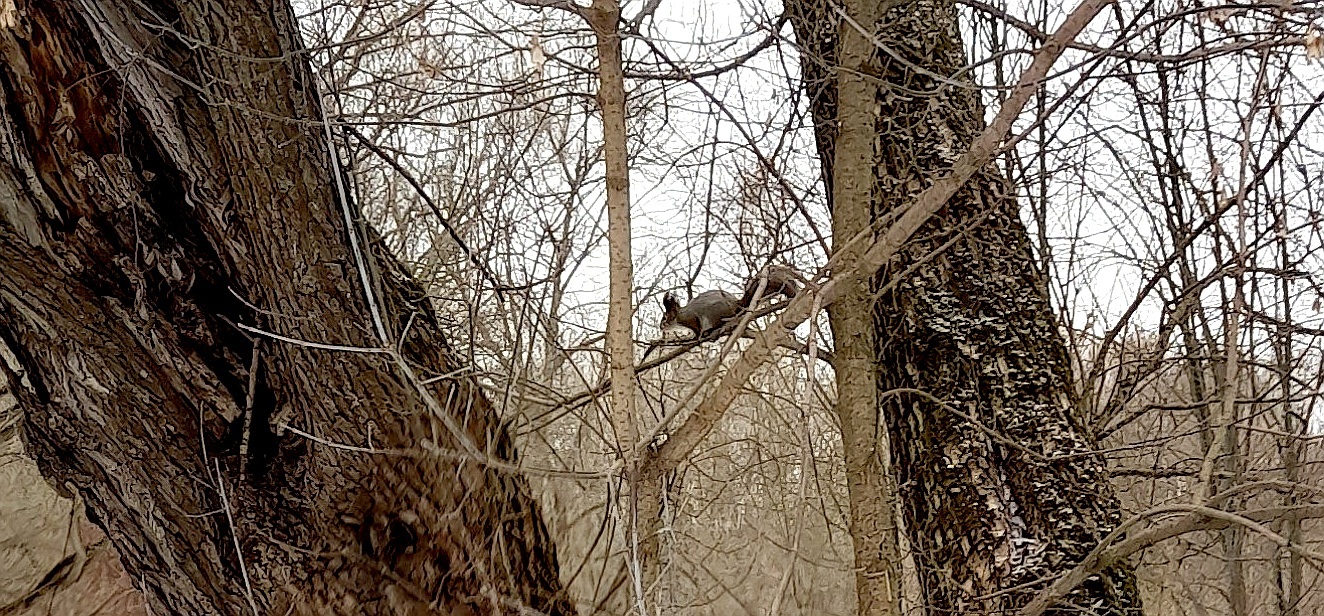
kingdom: Animalia
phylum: Chordata
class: Mammalia
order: Rodentia
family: Sciuridae
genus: Sciurus
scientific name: Sciurus vulgaris
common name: Eurasian red squirrel
